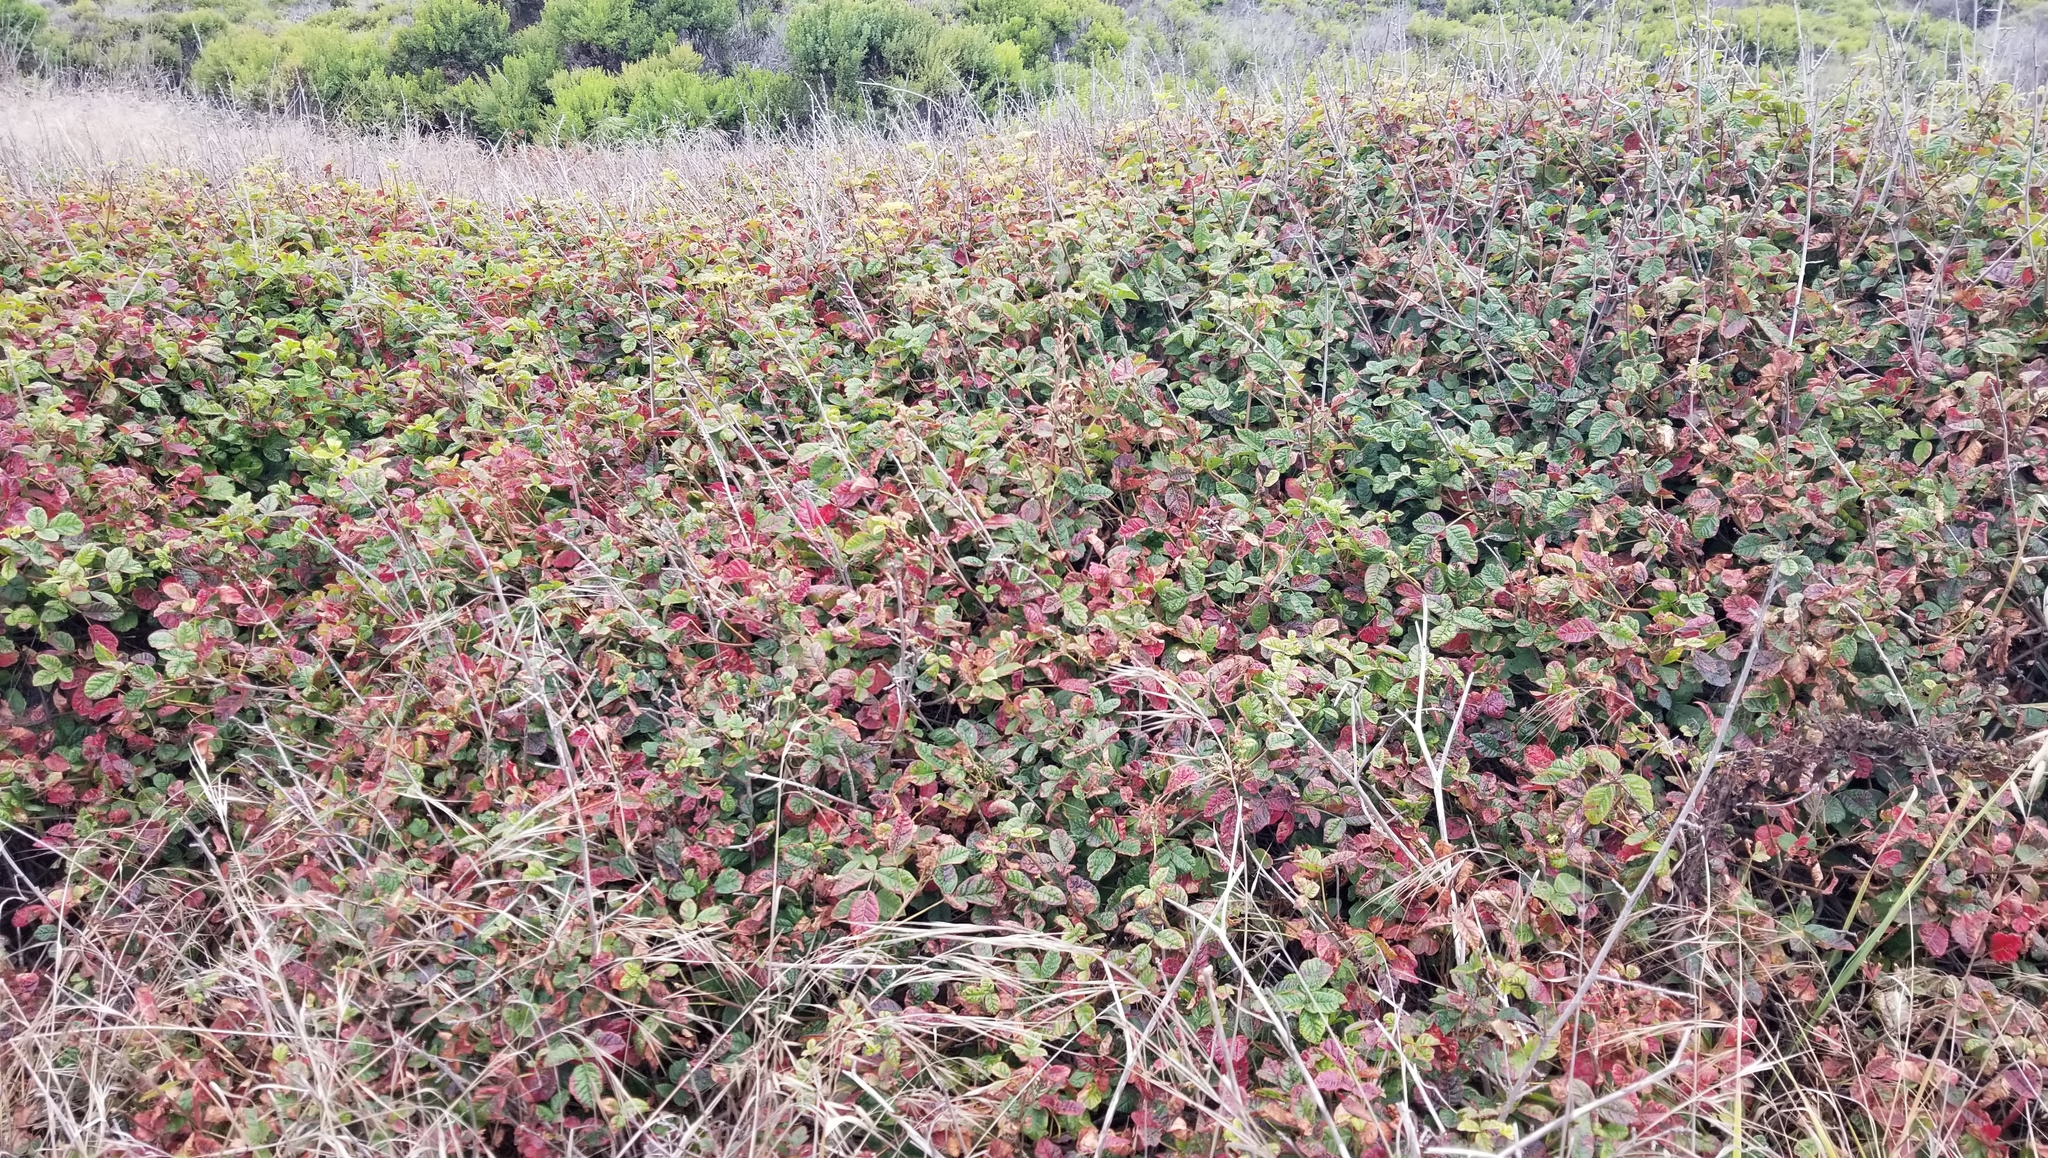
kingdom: Plantae
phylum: Tracheophyta
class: Magnoliopsida
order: Sapindales
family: Anacardiaceae
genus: Toxicodendron
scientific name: Toxicodendron diversilobum
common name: Pacific poison-oak
